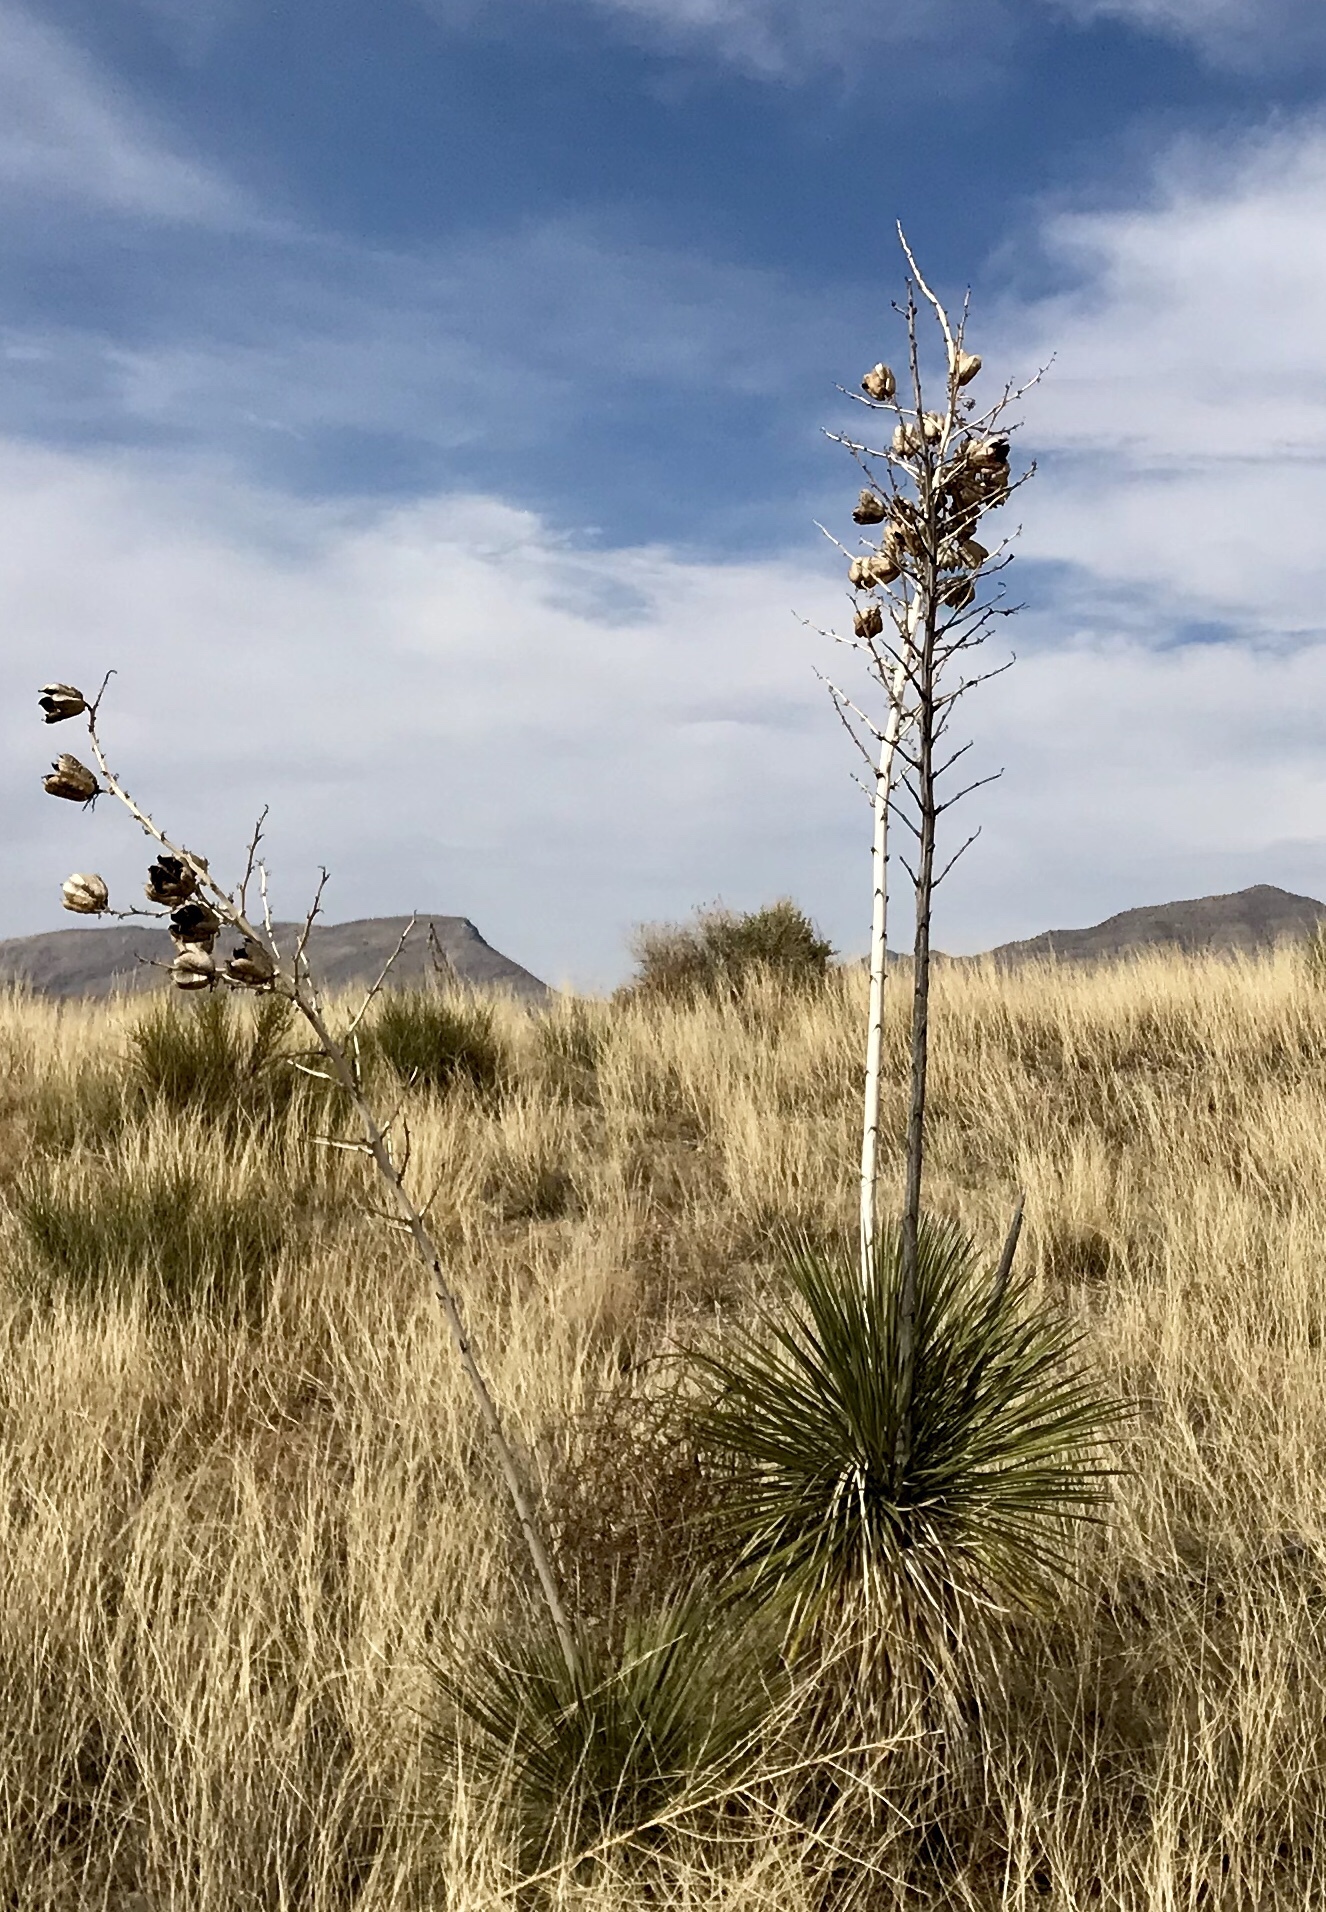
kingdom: Plantae
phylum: Tracheophyta
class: Liliopsida
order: Asparagales
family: Asparagaceae
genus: Yucca
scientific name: Yucca elata
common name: Palmella
